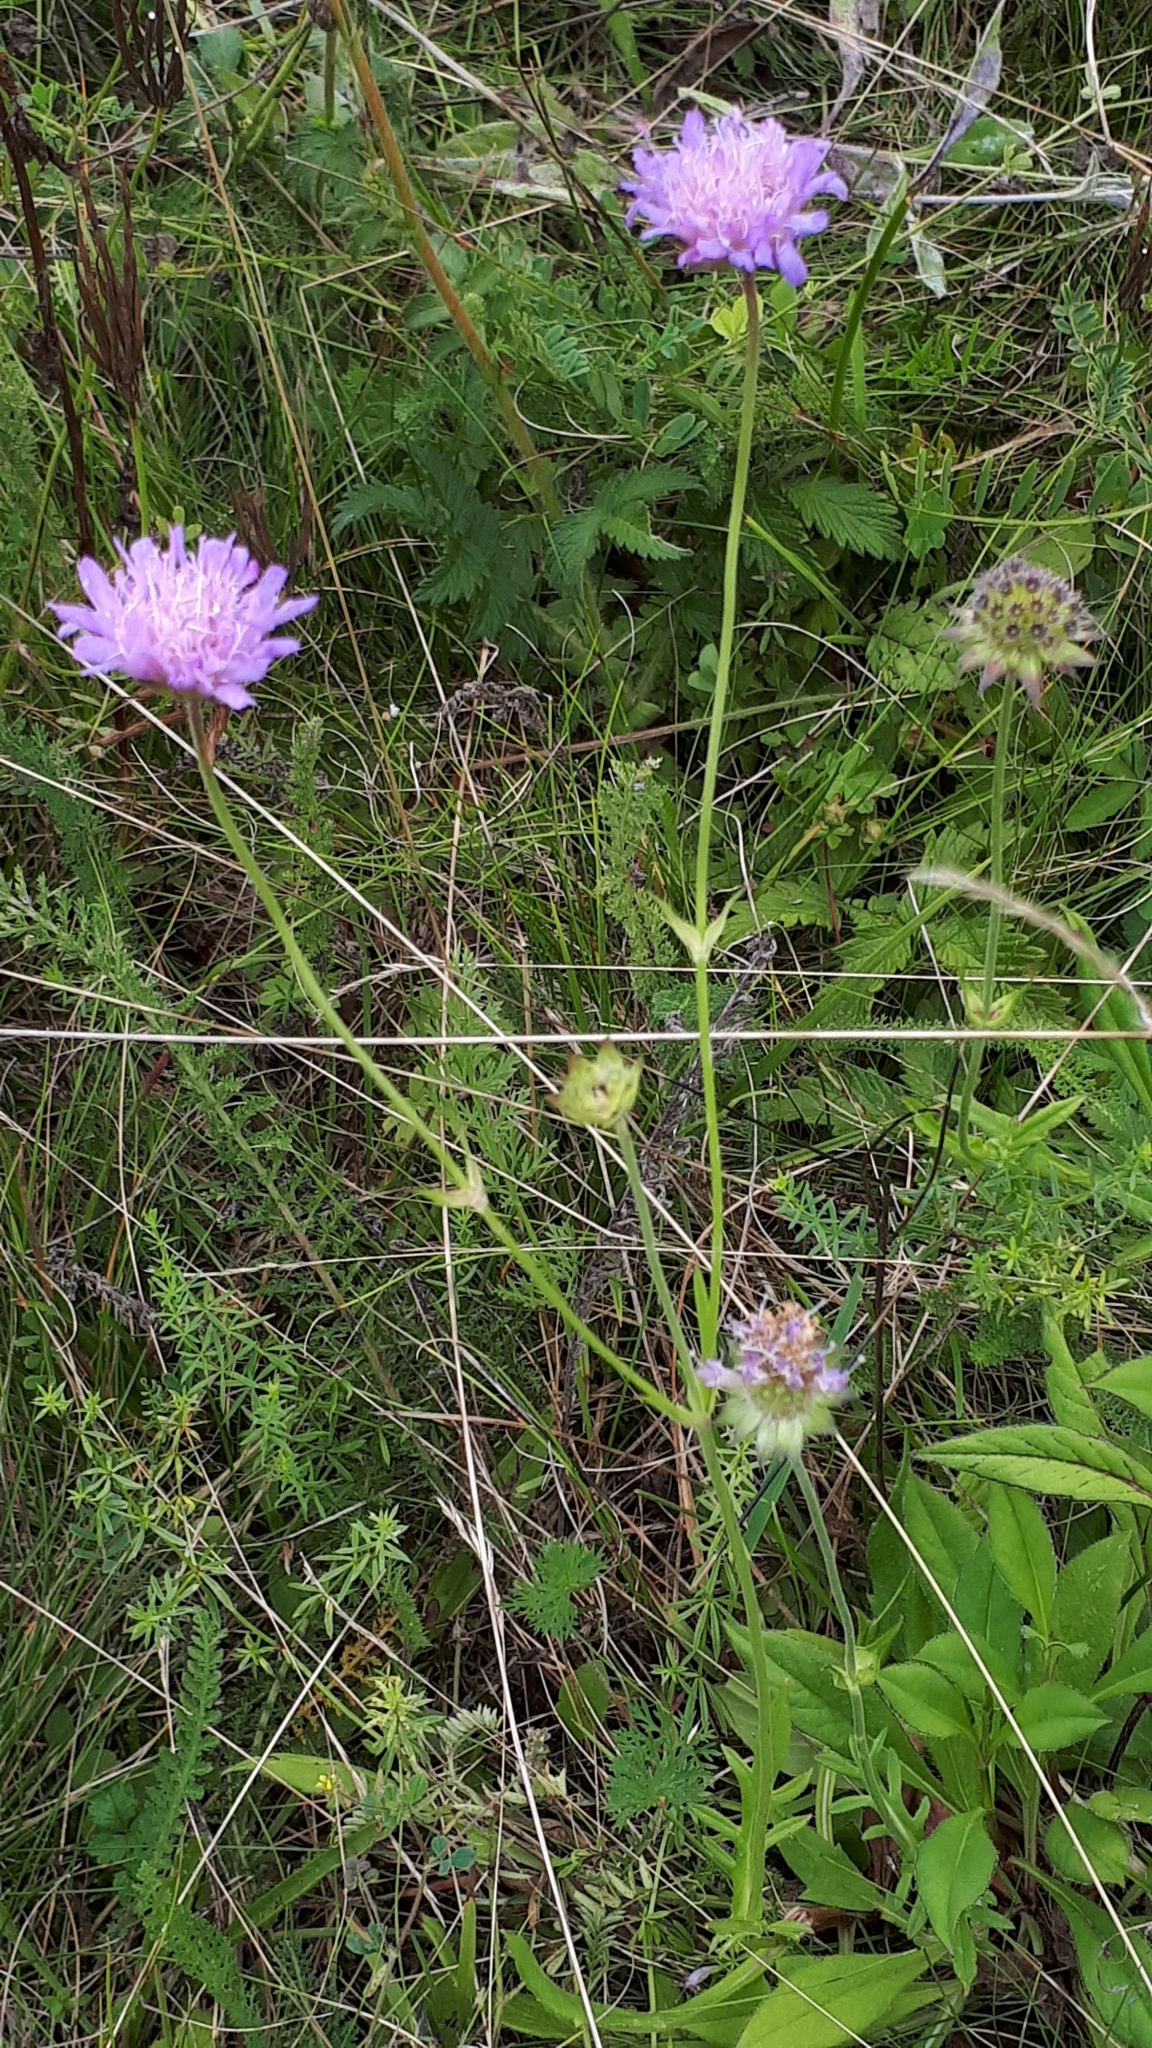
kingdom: Plantae
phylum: Tracheophyta
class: Magnoliopsida
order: Dipsacales
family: Caprifoliaceae
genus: Knautia
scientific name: Knautia arvensis
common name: Field scabiosa
